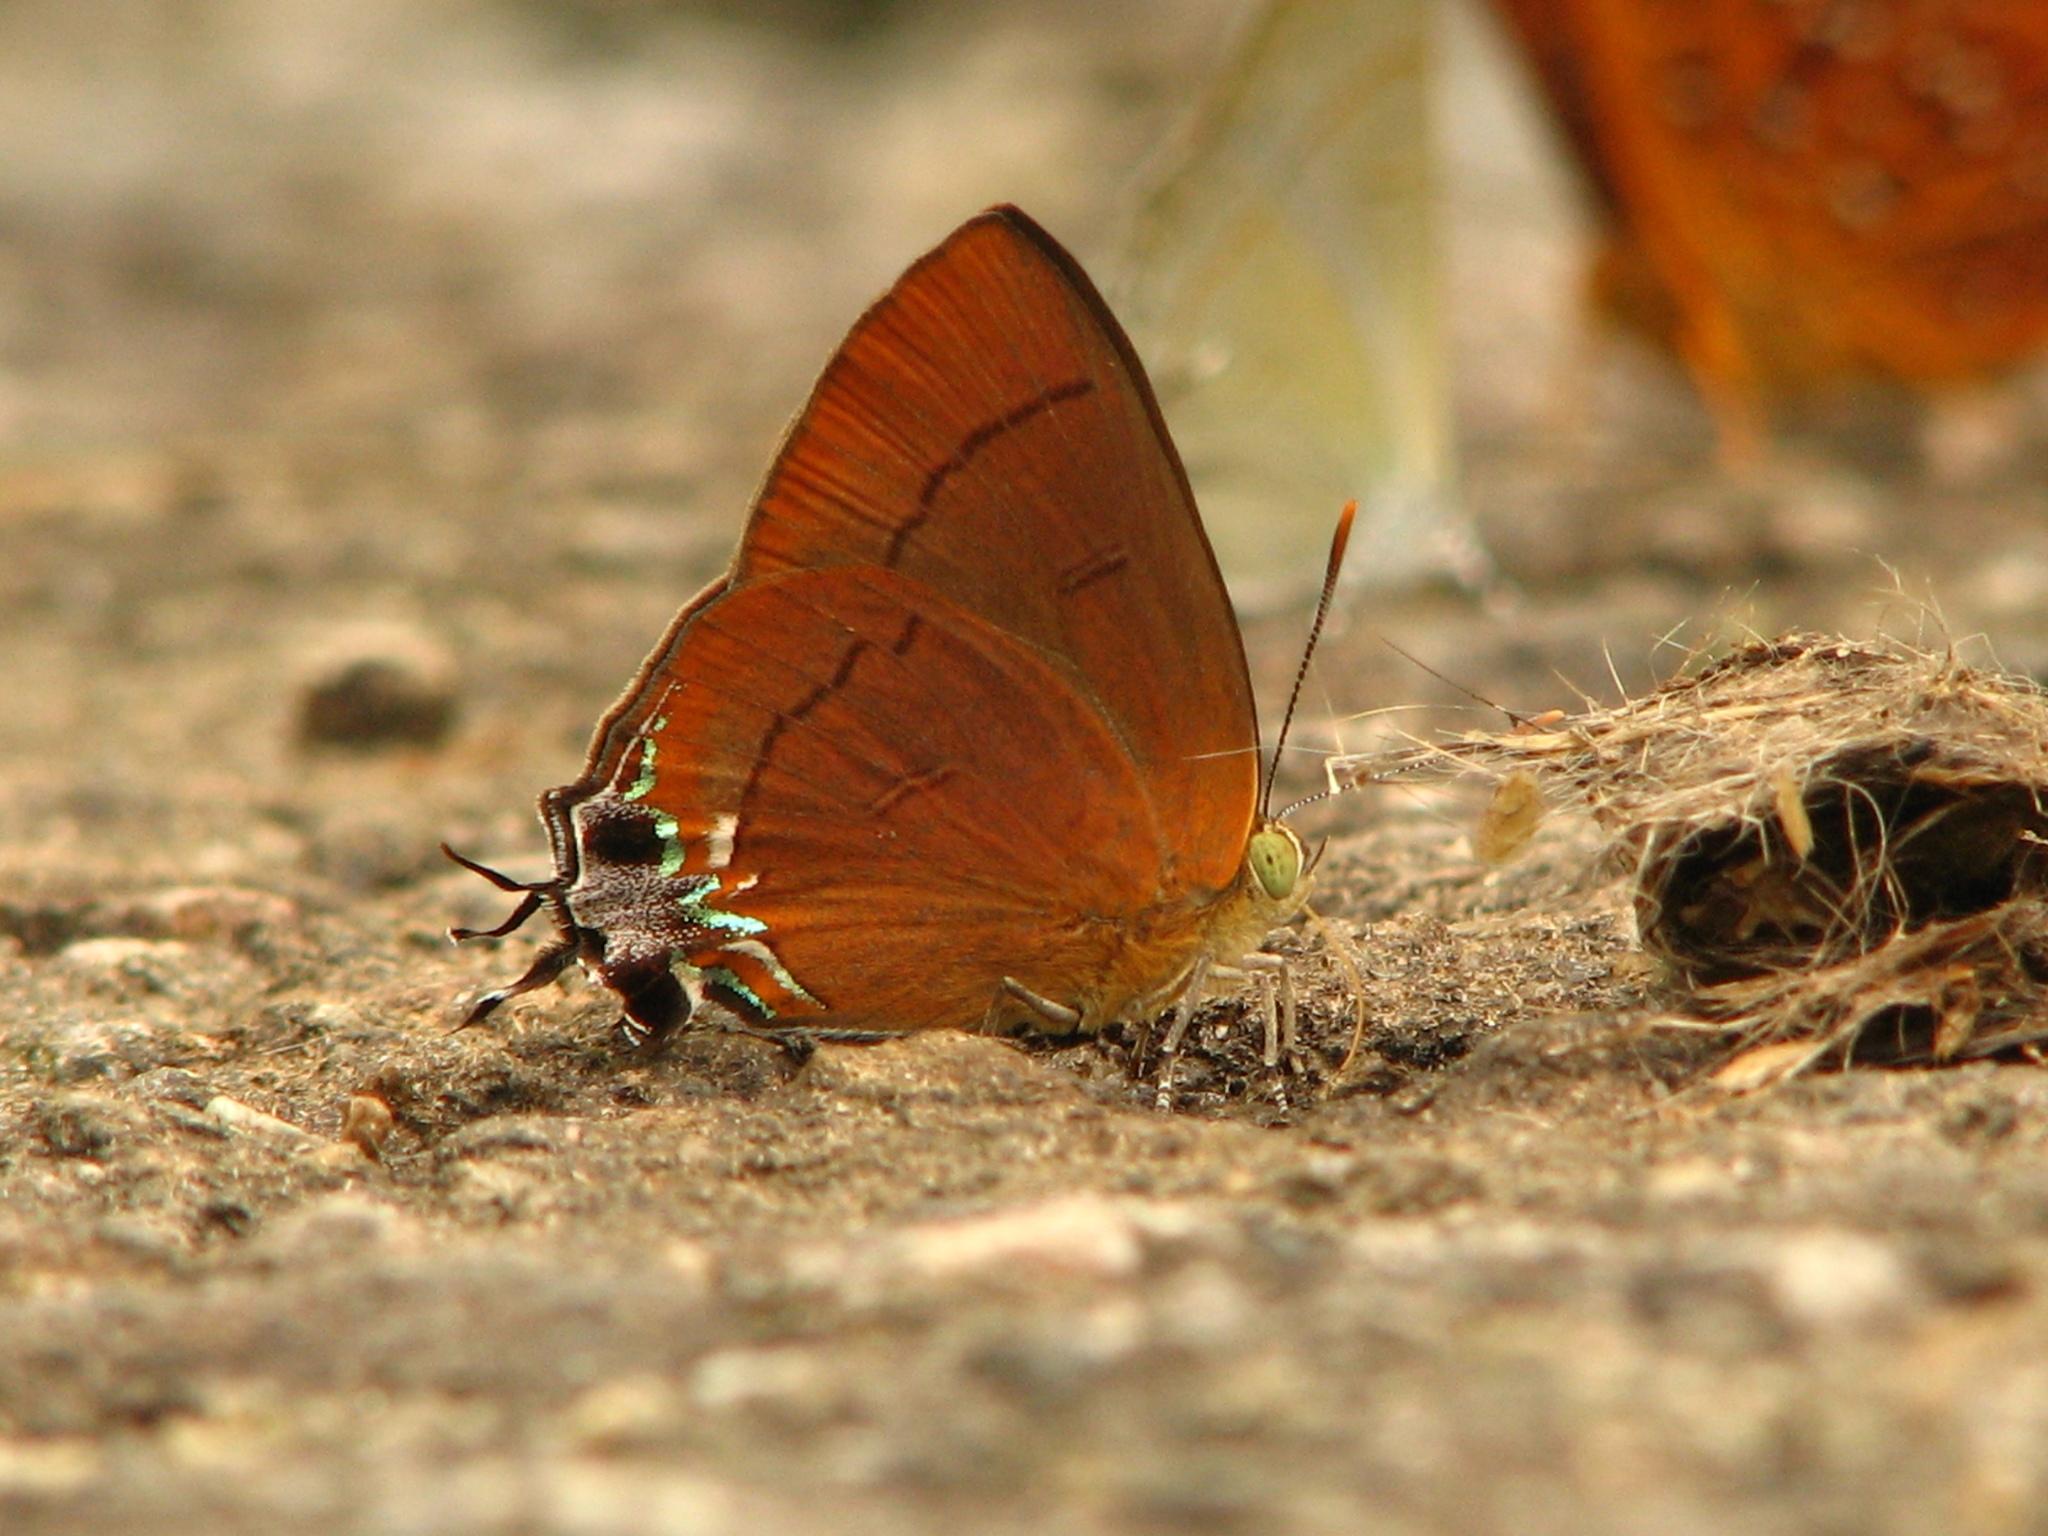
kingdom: Animalia
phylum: Arthropoda
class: Insecta
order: Lepidoptera
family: Lycaenidae
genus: Remelana
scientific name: Remelana jangala
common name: Chocolate royal
